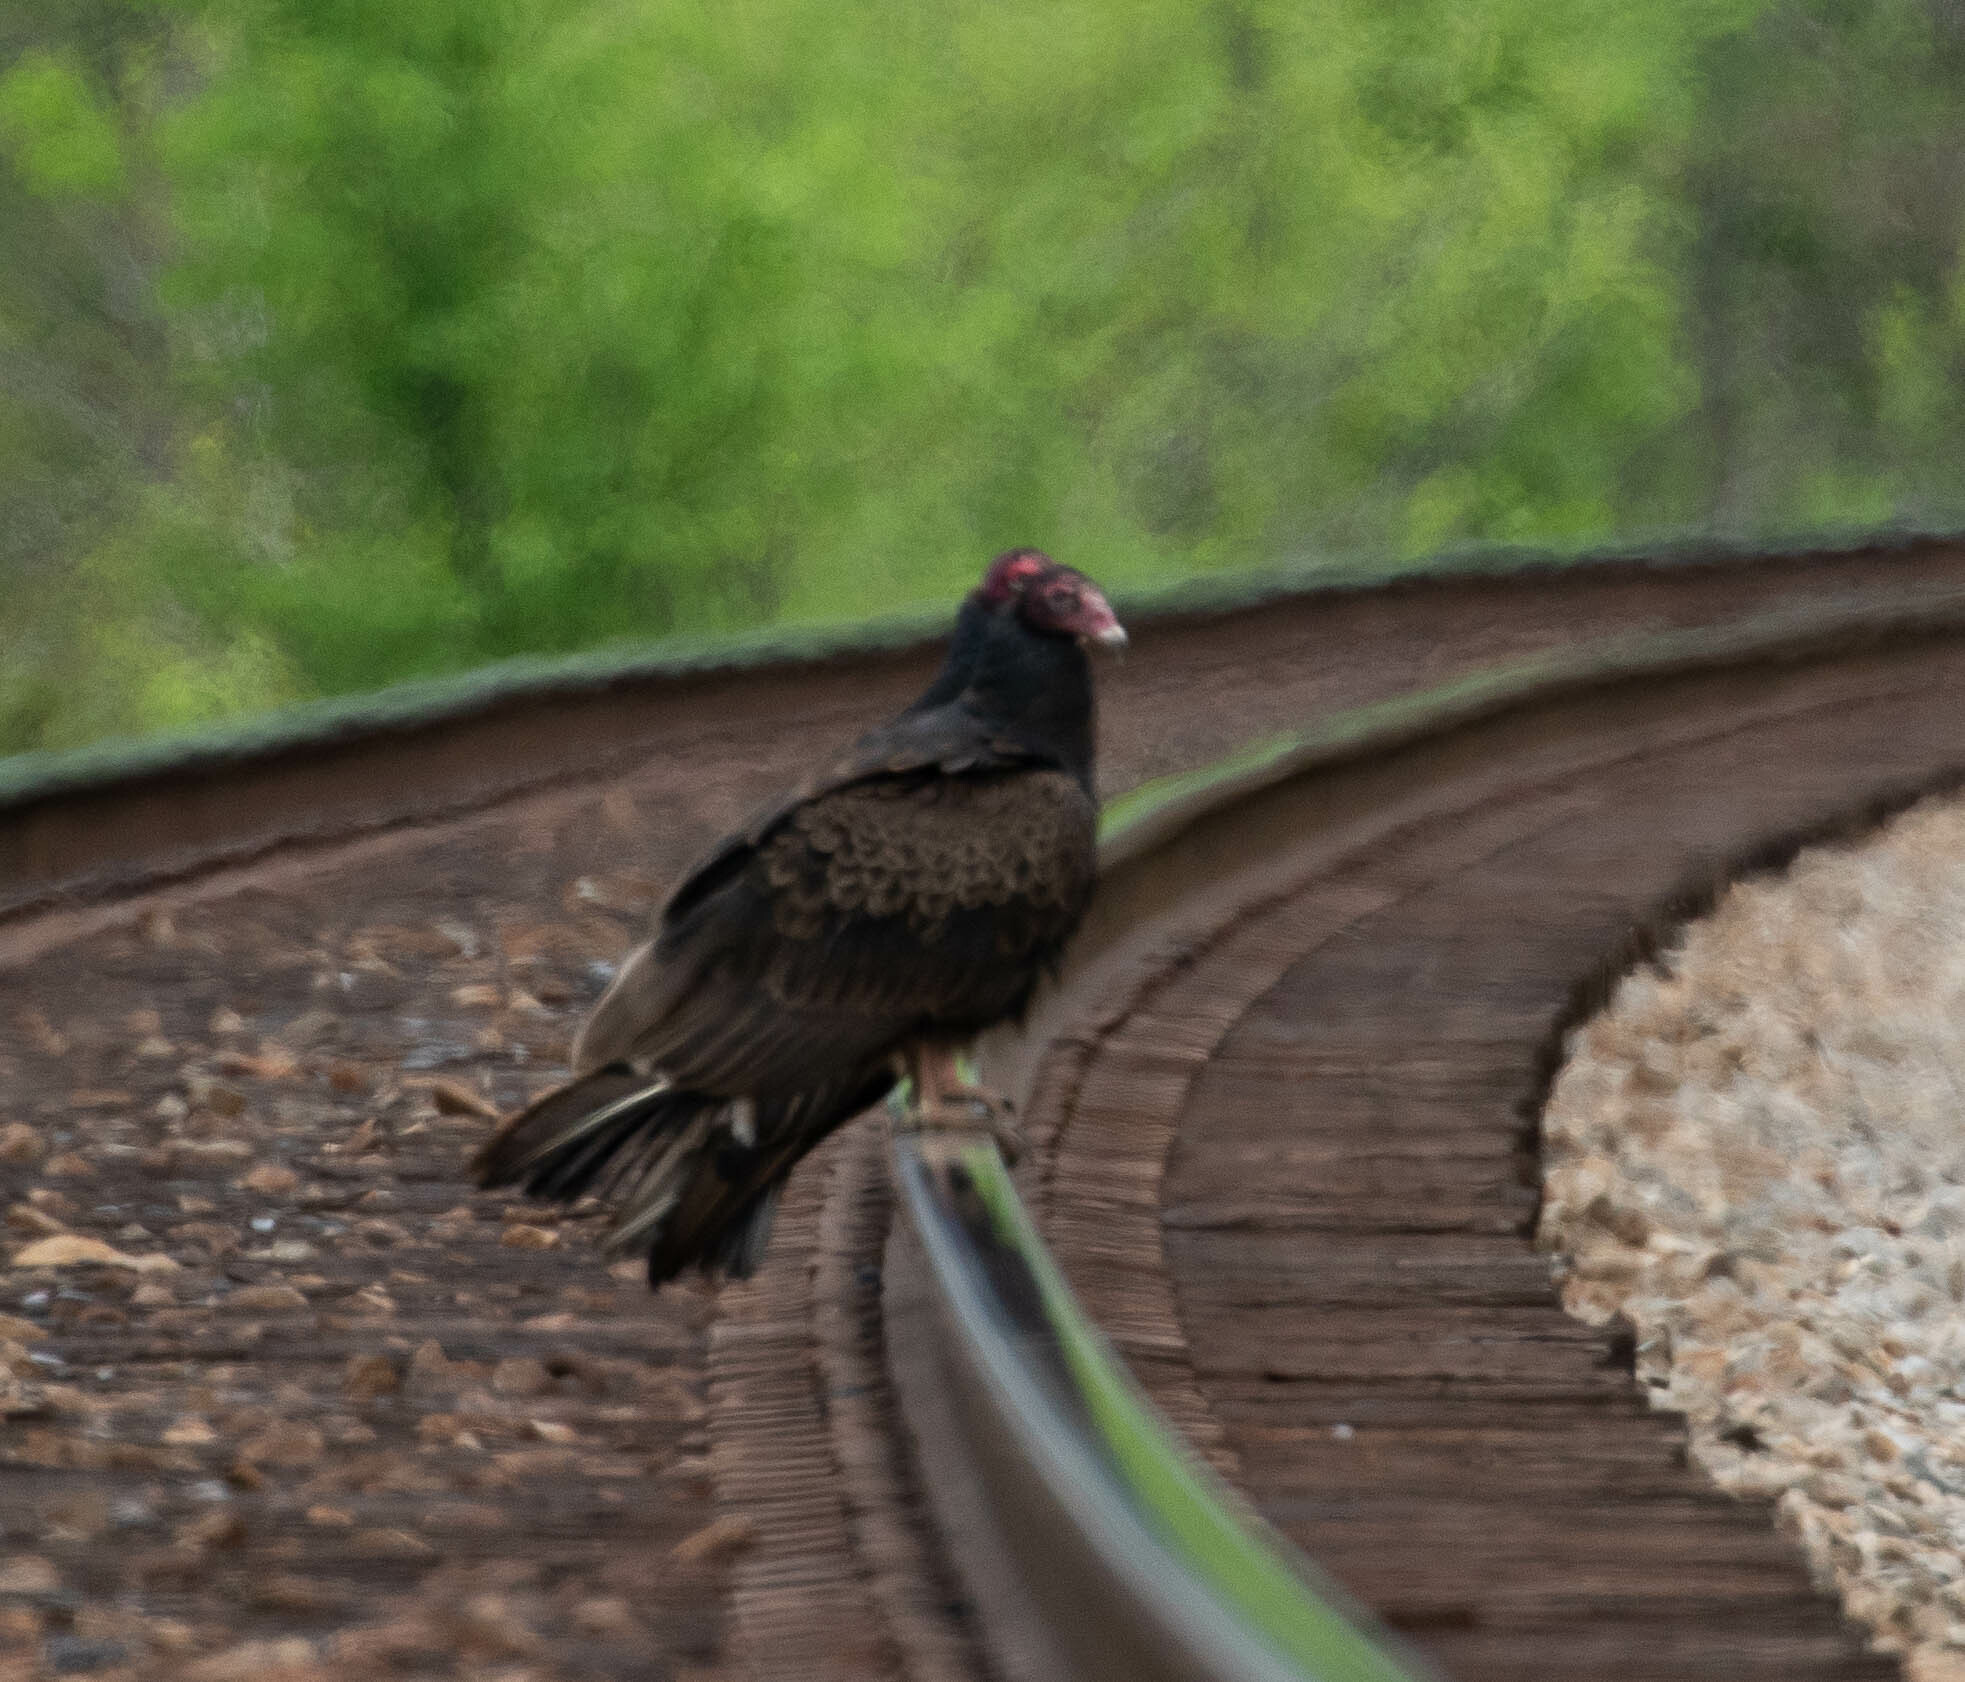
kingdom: Animalia
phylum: Chordata
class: Aves
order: Accipitriformes
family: Cathartidae
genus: Cathartes
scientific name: Cathartes aura
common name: Turkey vulture
